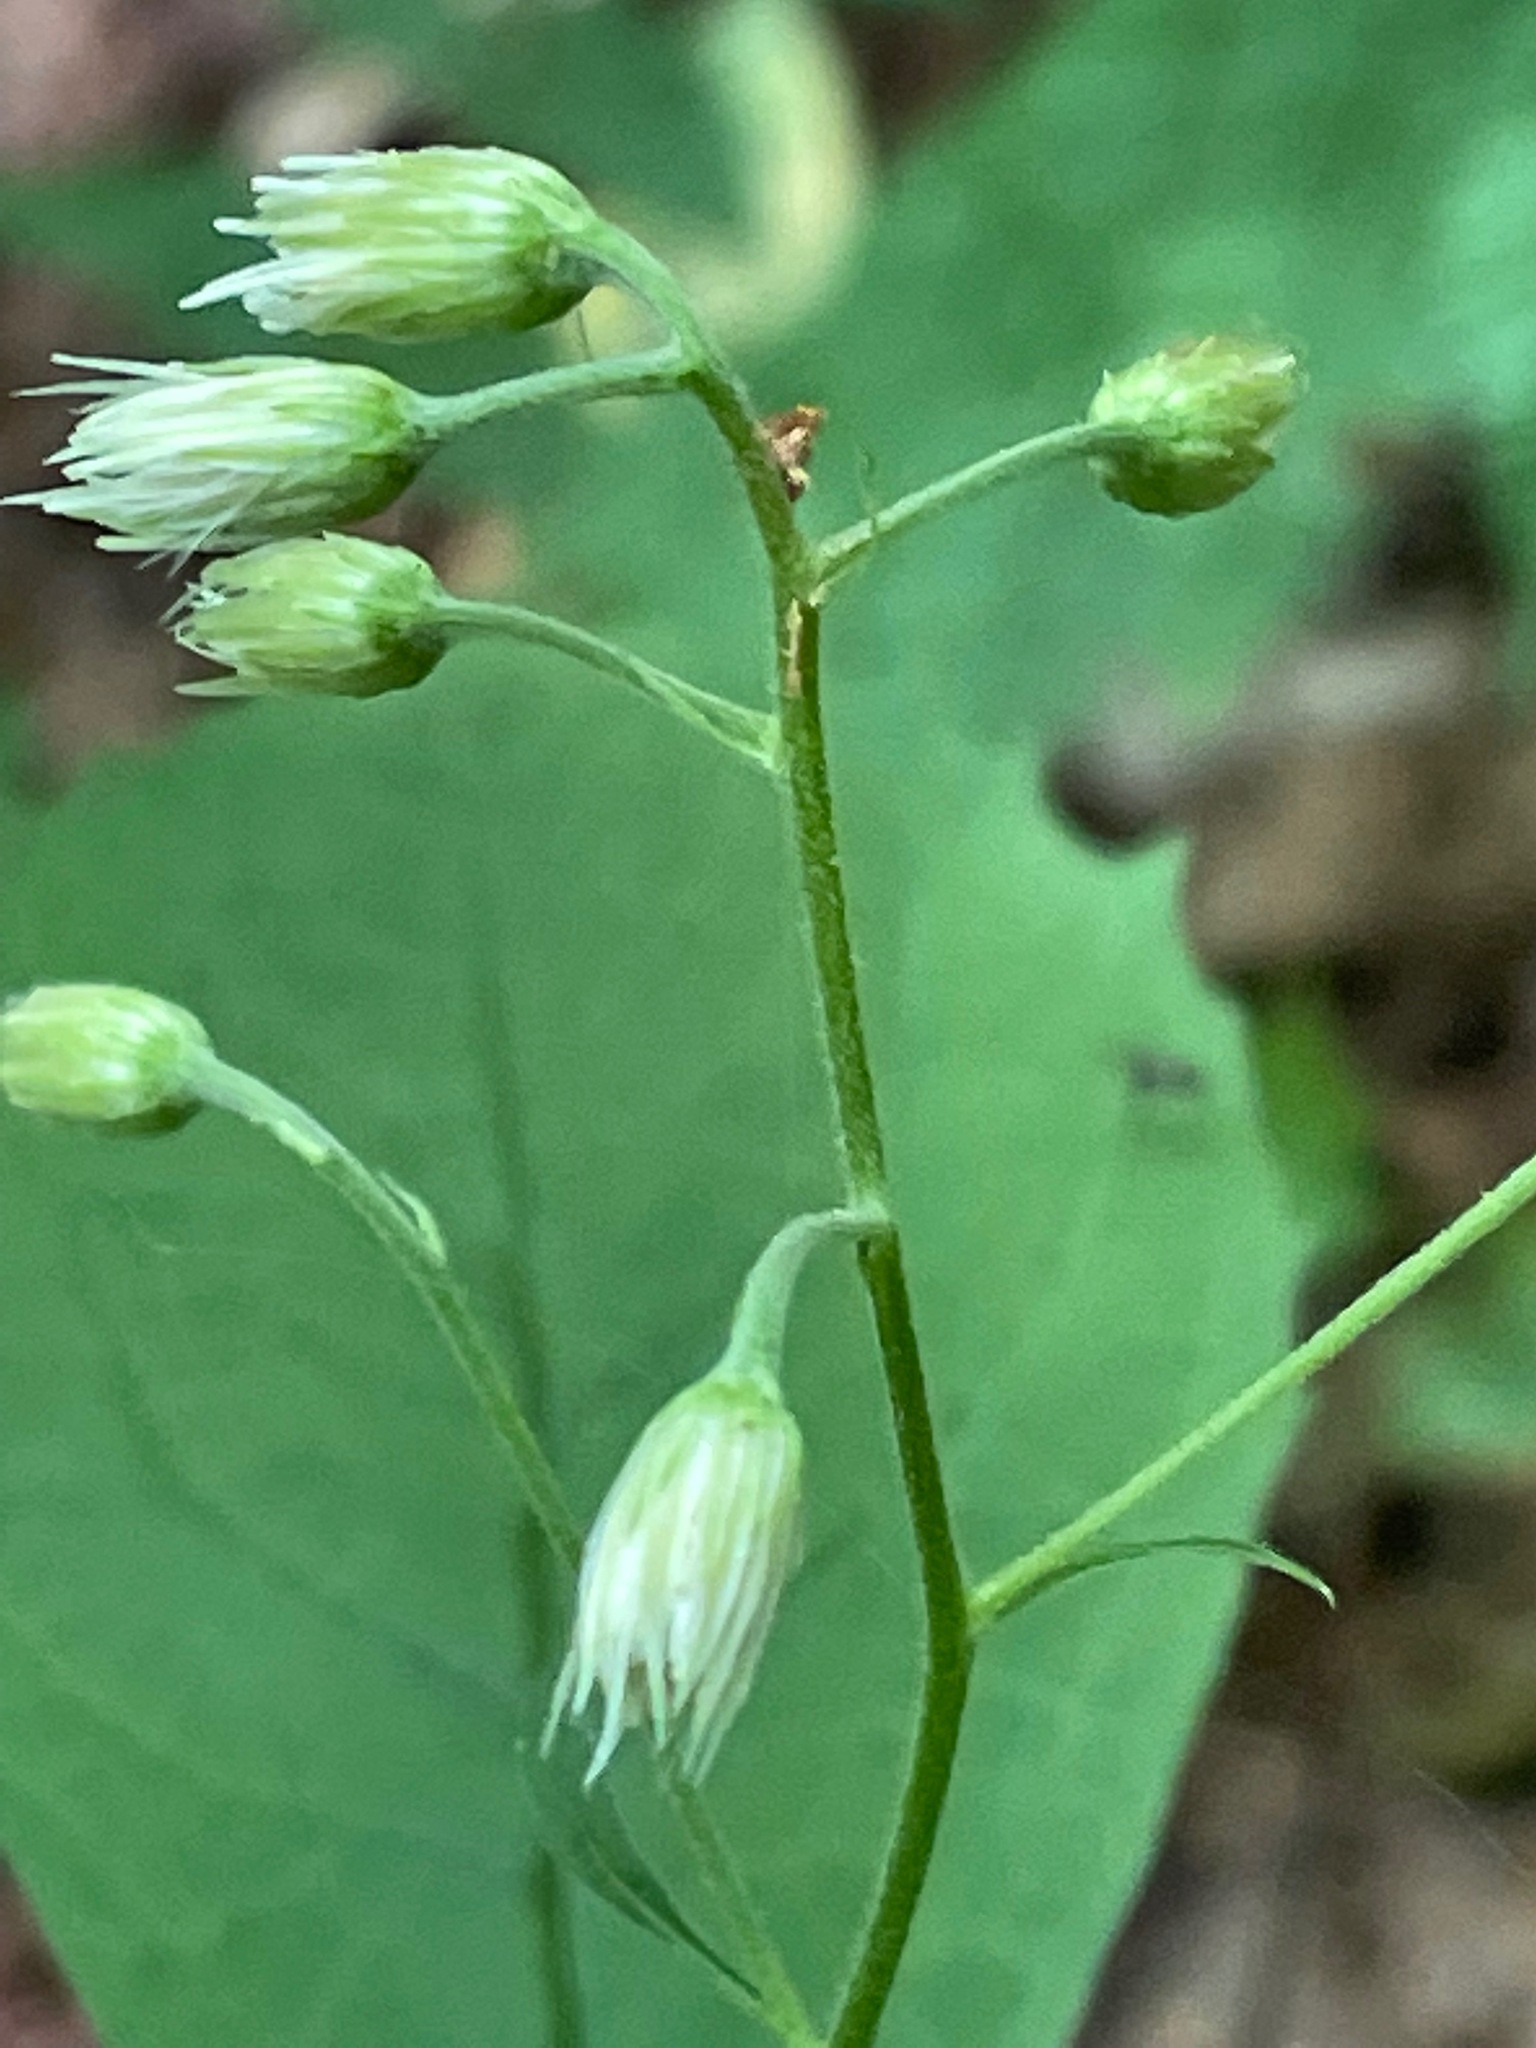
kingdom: Plantae
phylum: Tracheophyta
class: Magnoliopsida
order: Asterales
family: Asteraceae
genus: Oclemena
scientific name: Oclemena acuminata
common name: Mountain aster
